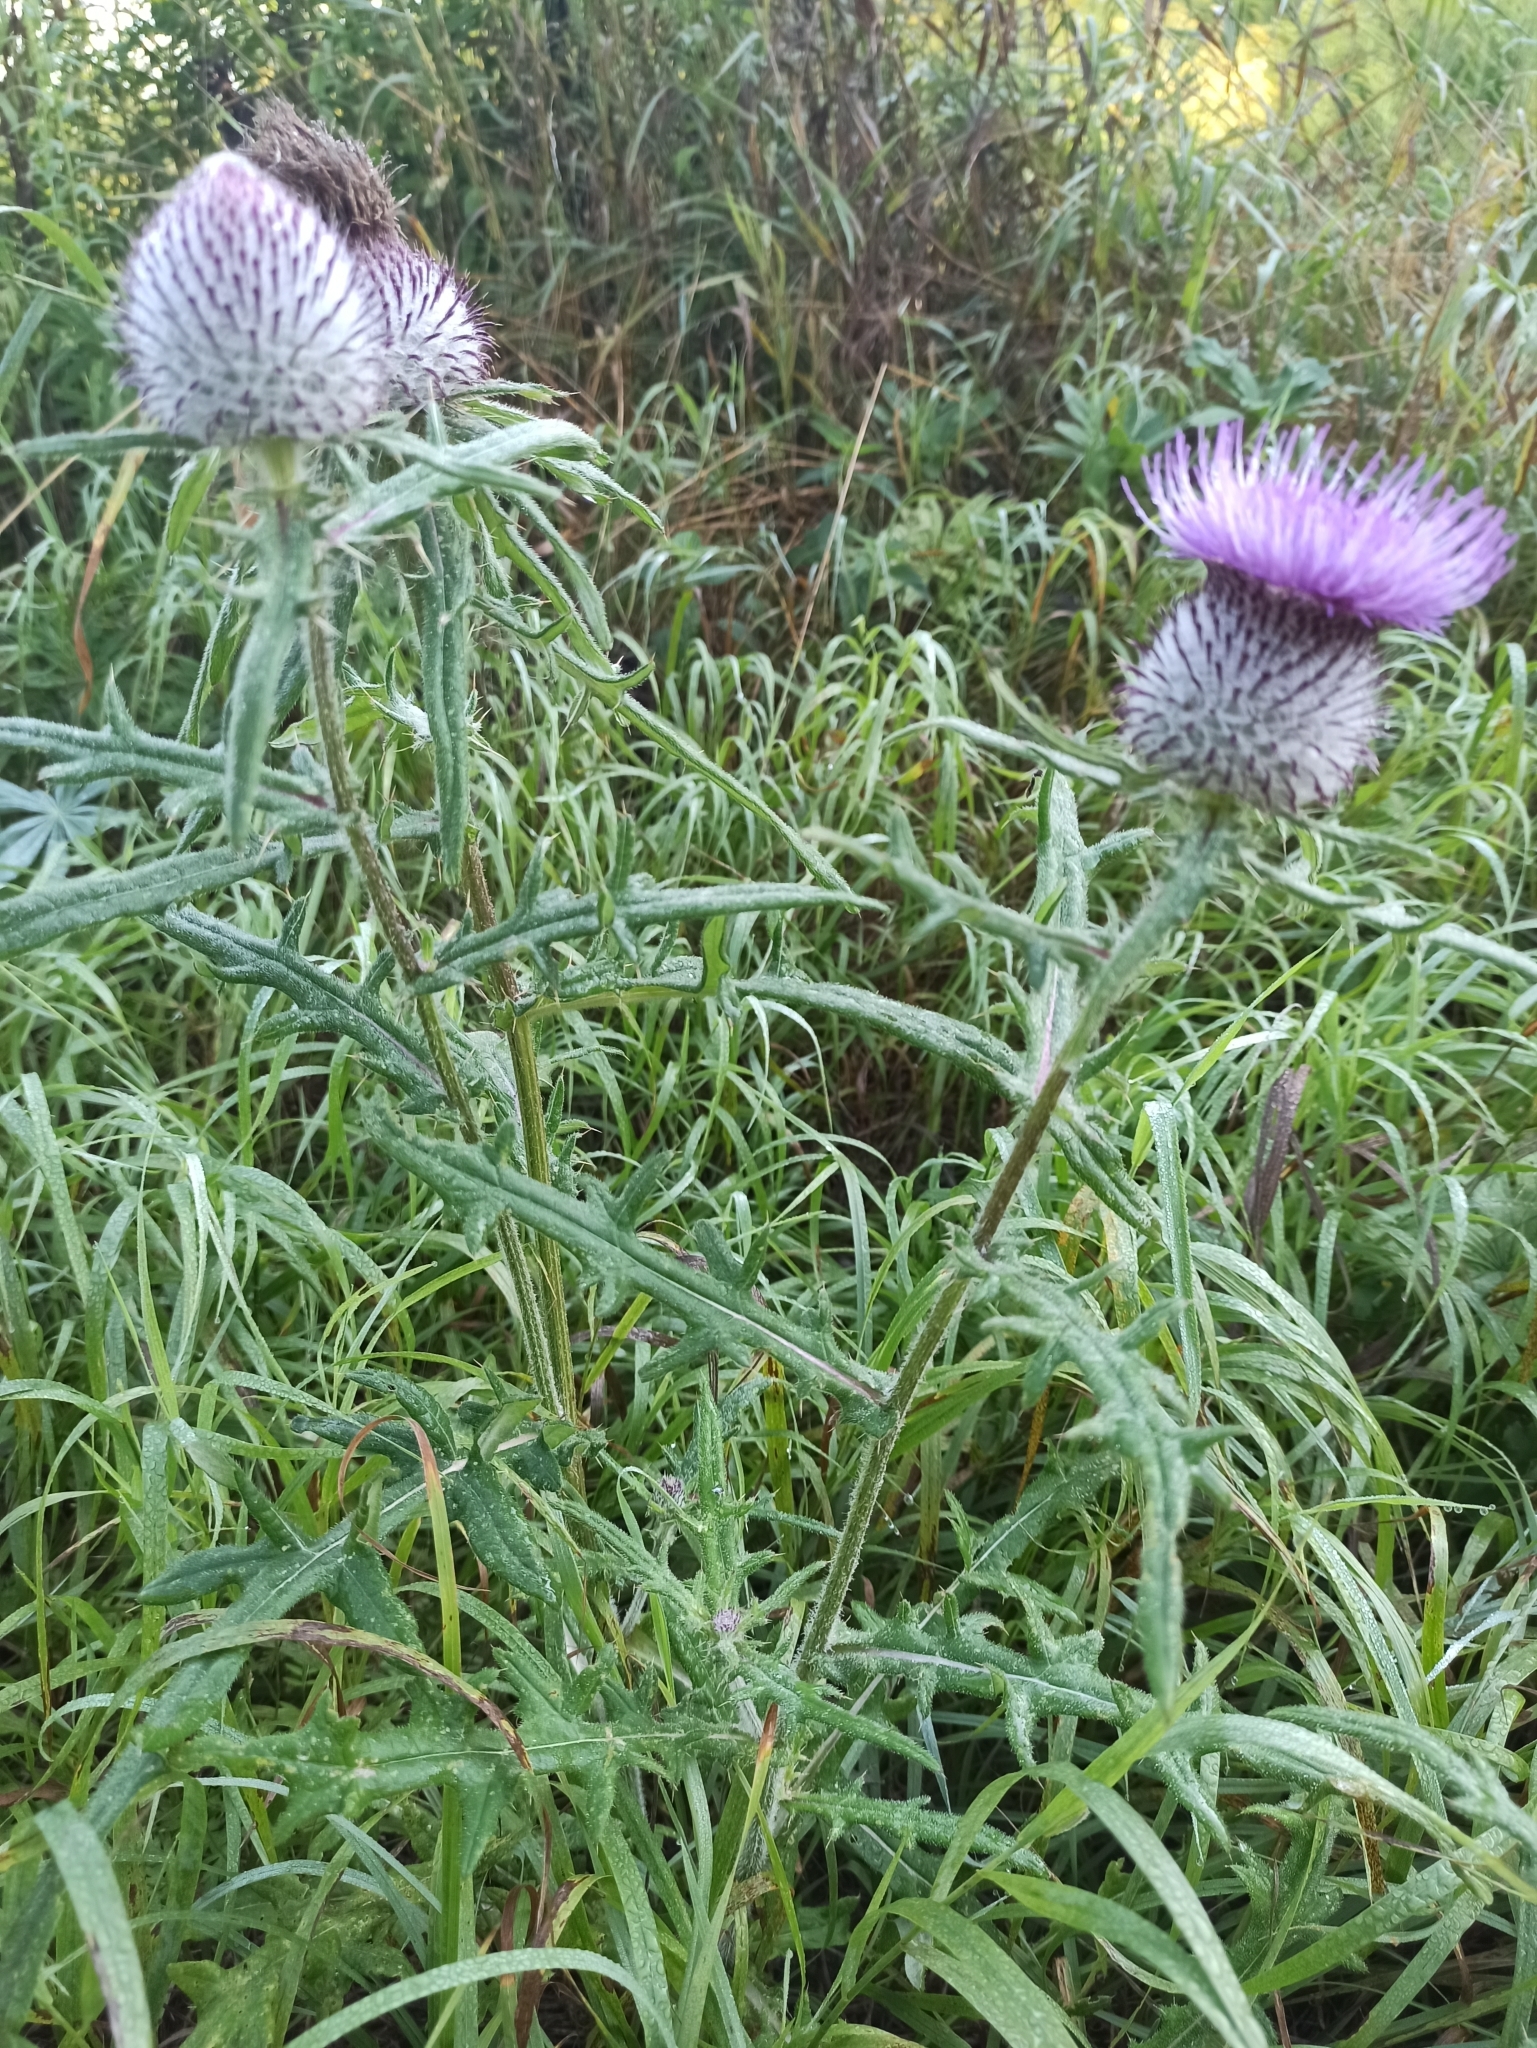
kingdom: Plantae
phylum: Tracheophyta
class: Magnoliopsida
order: Asterales
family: Asteraceae
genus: Lophiolepis
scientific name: Lophiolepis decussata
